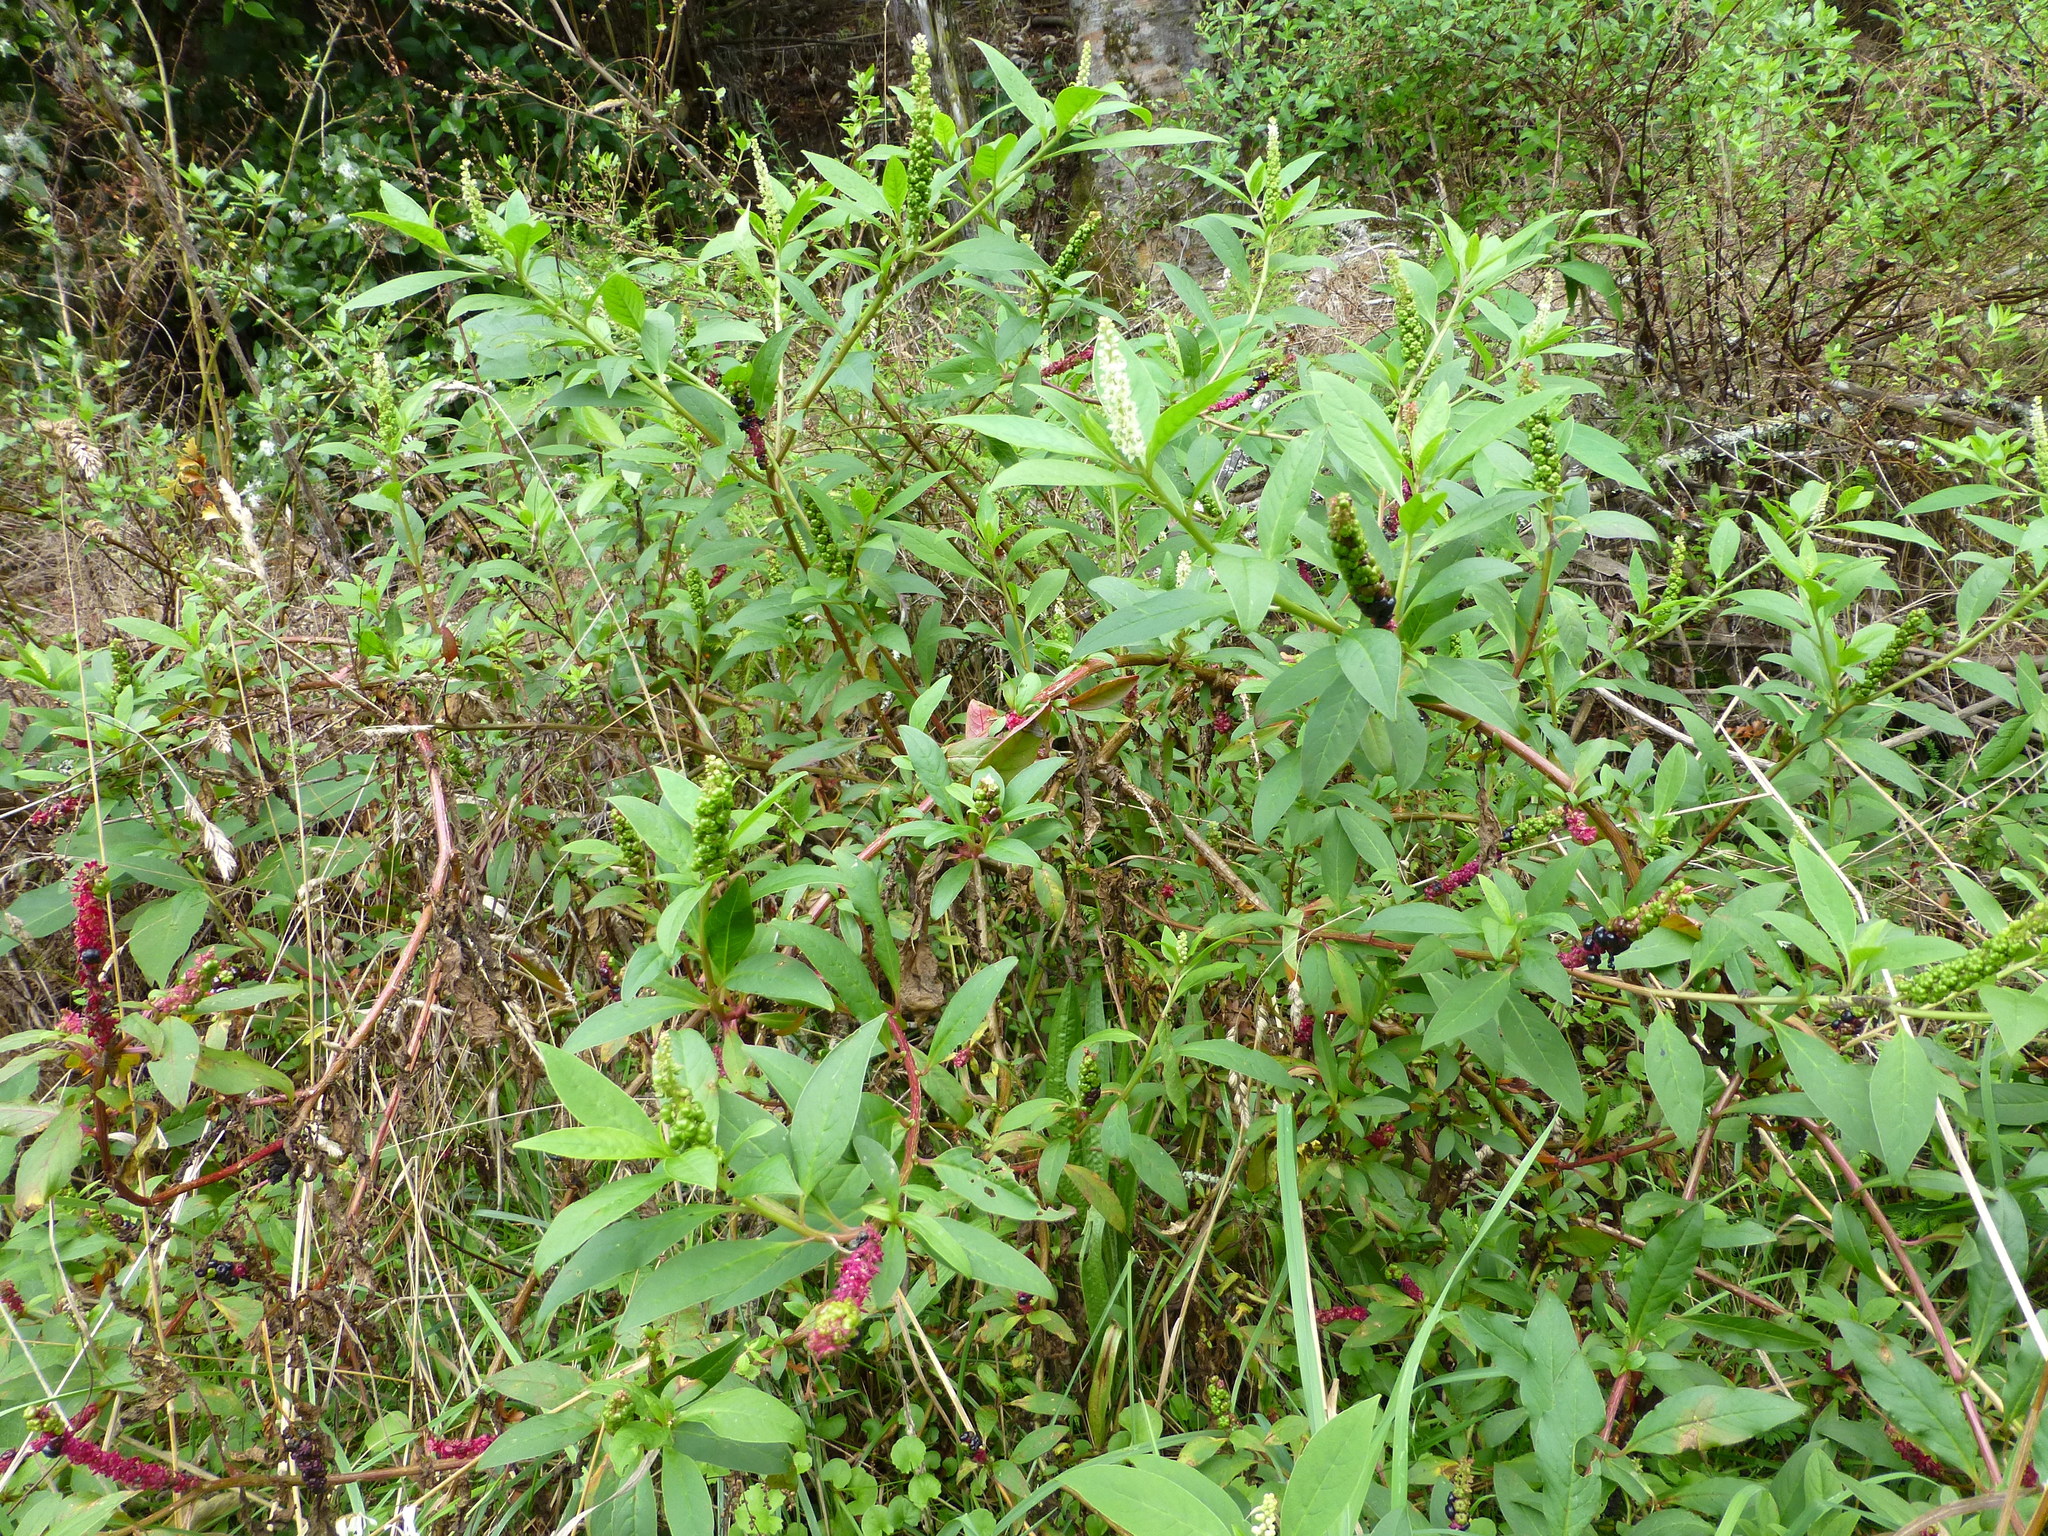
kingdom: Plantae
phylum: Tracheophyta
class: Magnoliopsida
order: Caryophyllales
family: Phytolaccaceae
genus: Phytolacca
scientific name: Phytolacca icosandra
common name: Button pokeweed
